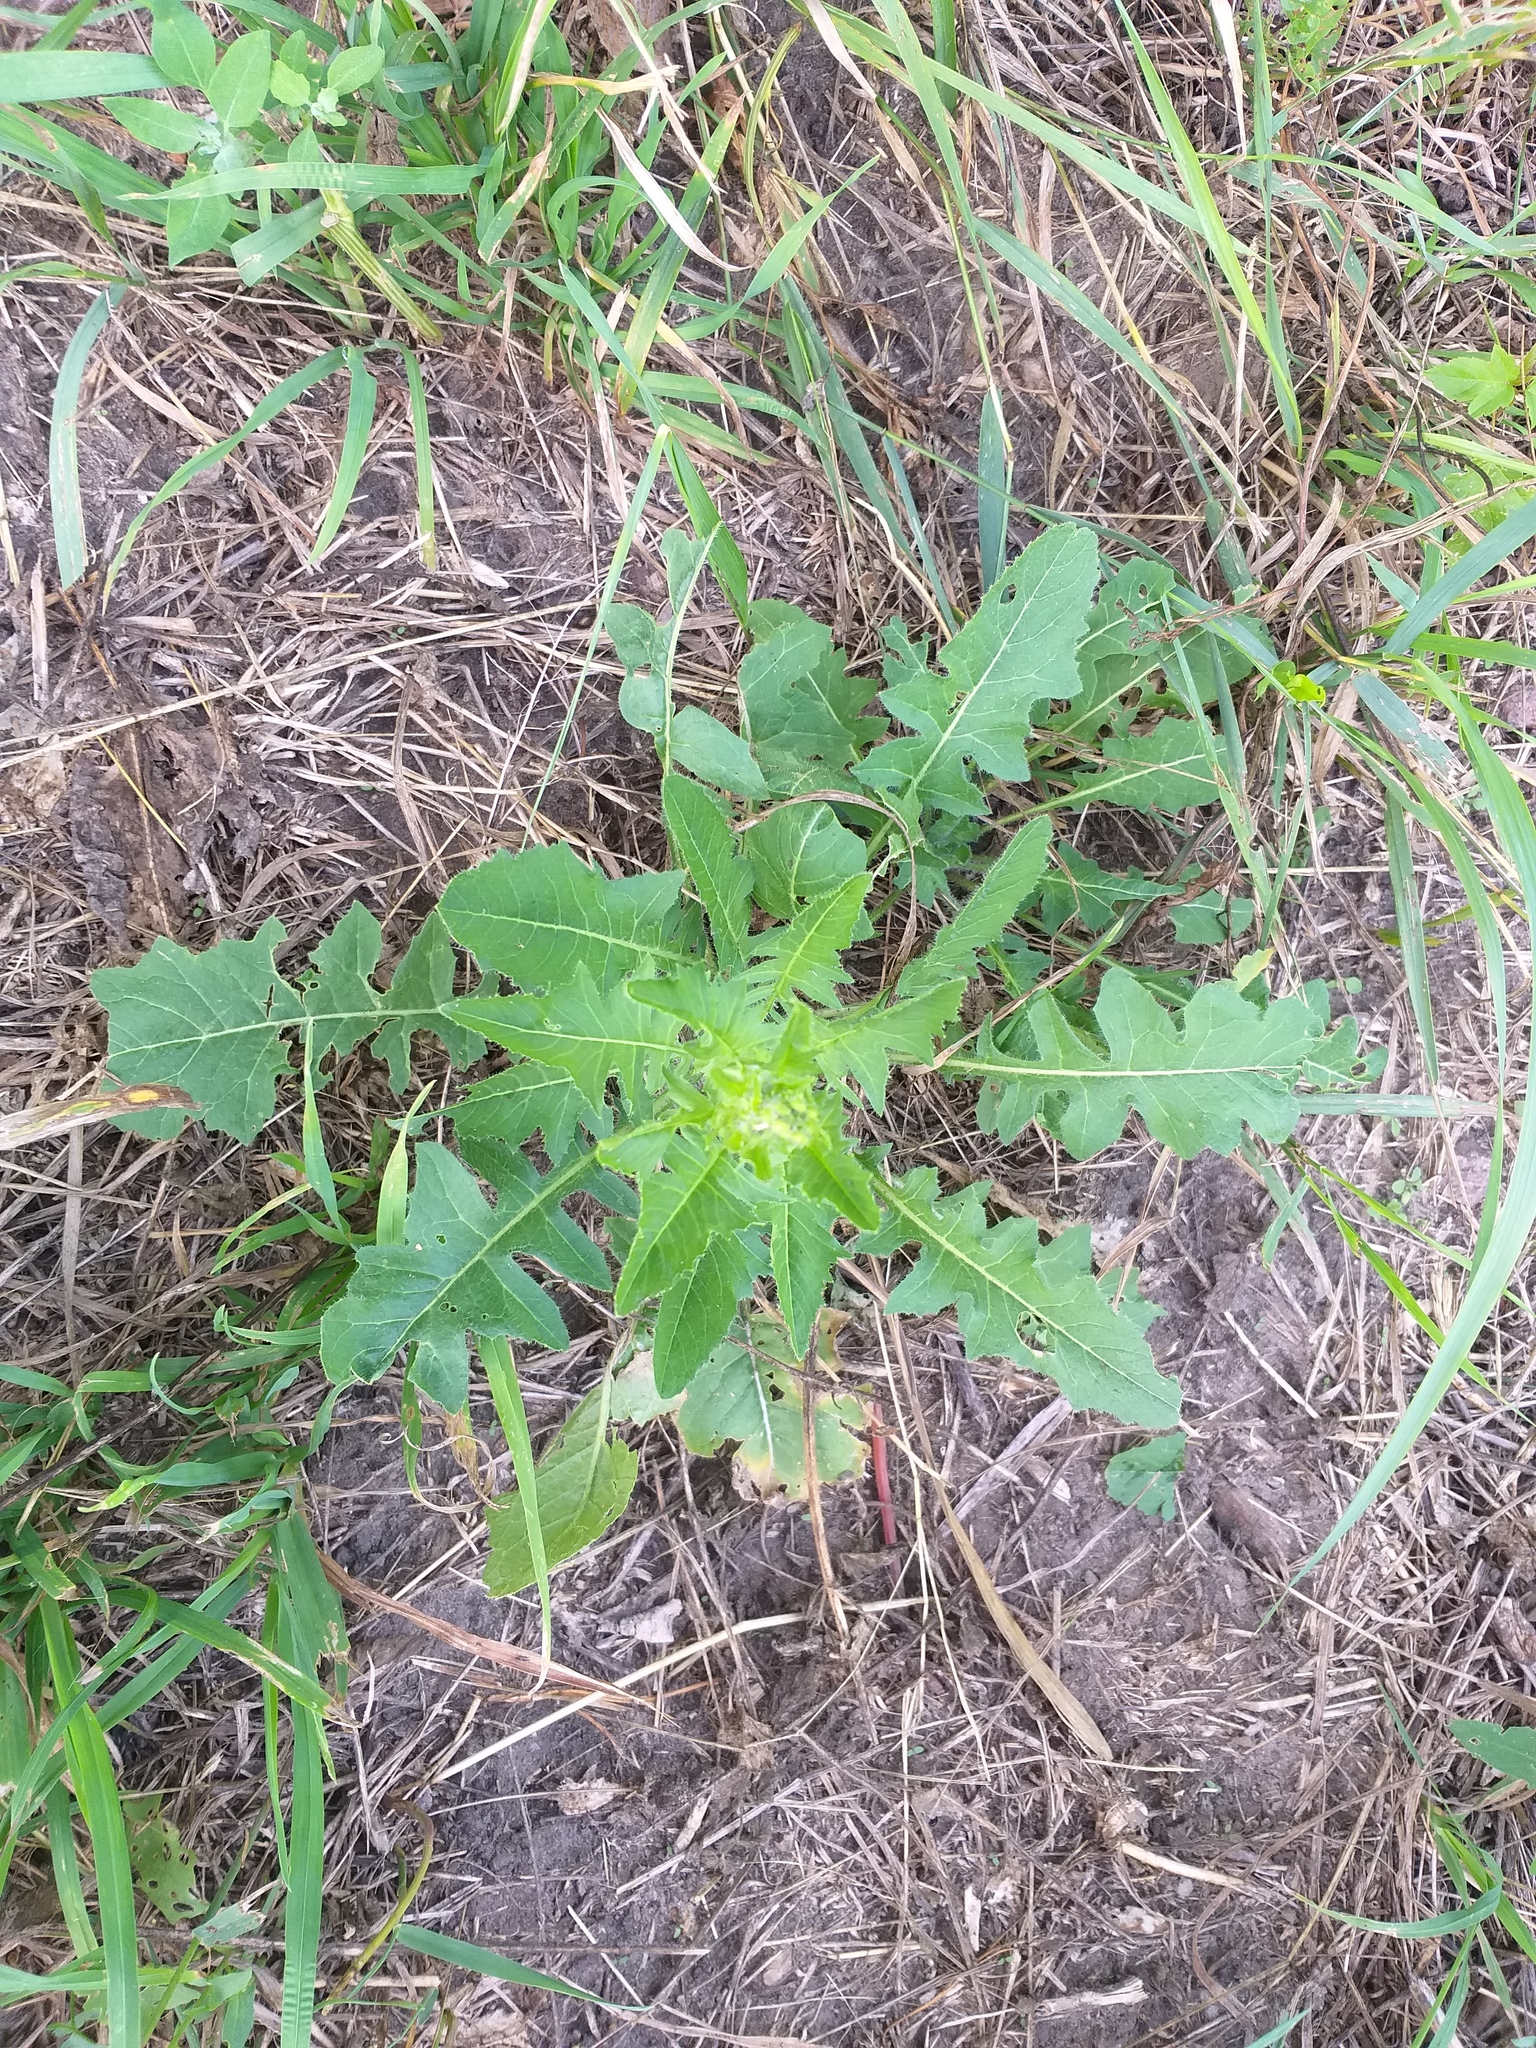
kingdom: Plantae
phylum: Tracheophyta
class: Magnoliopsida
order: Brassicales
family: Brassicaceae
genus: Sisymbrium
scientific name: Sisymbrium loeselii
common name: False london-rocket
